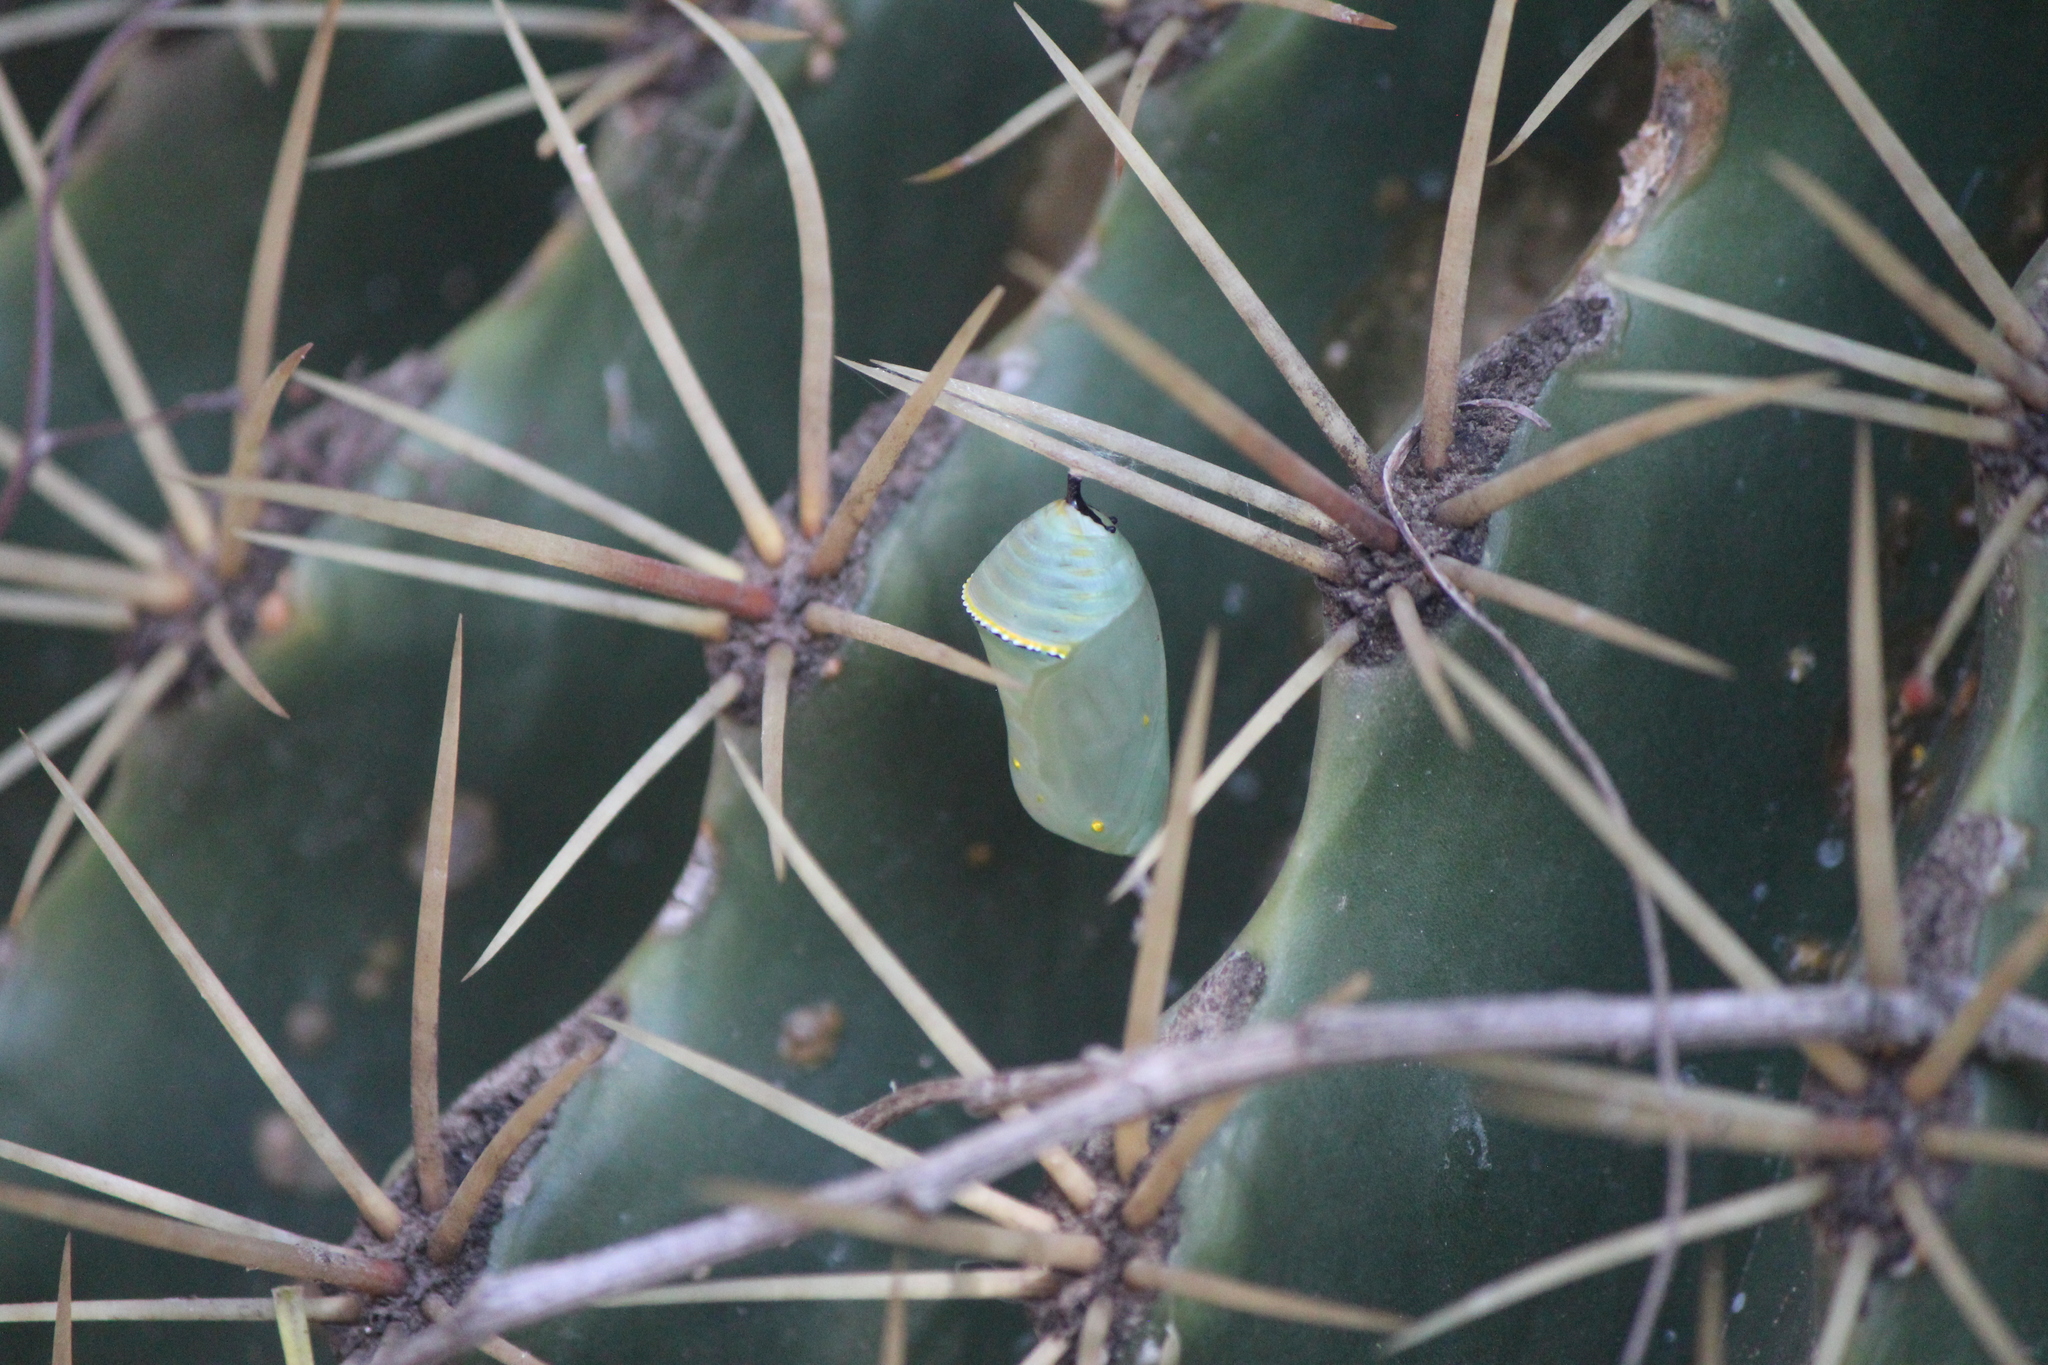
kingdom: Animalia
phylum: Arthropoda
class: Insecta
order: Lepidoptera
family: Nymphalidae
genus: Danaus
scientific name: Danaus
